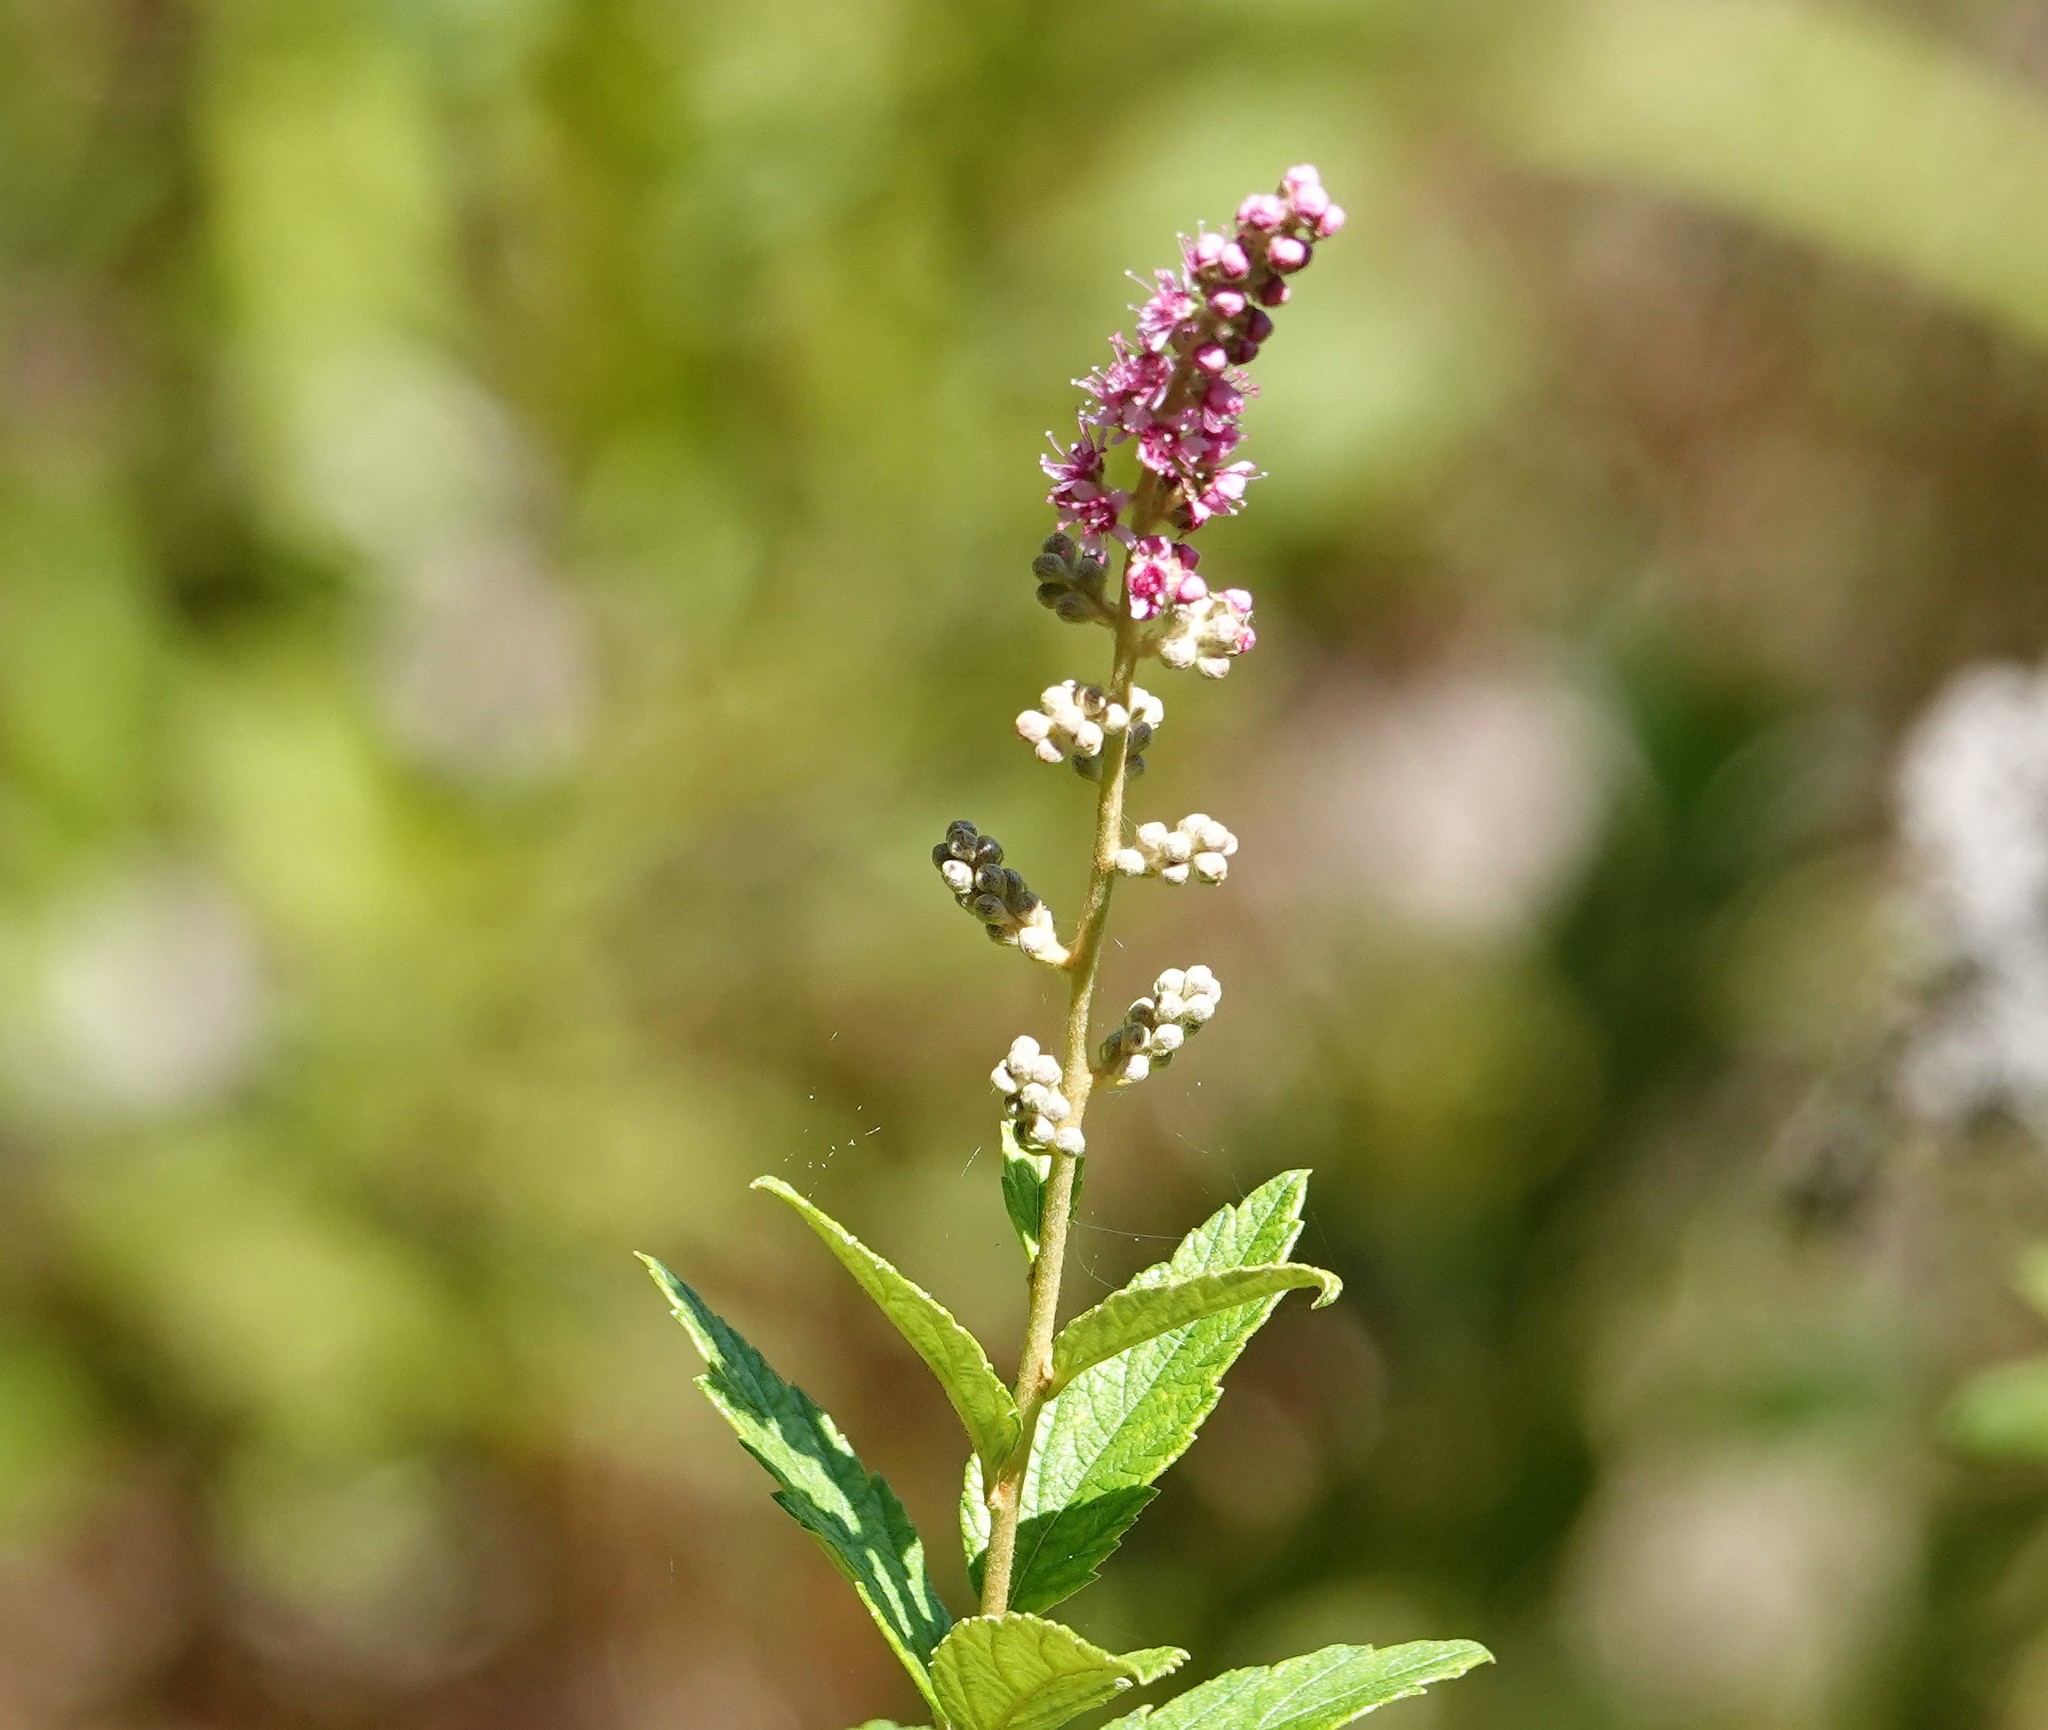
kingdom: Plantae
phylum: Tracheophyta
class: Magnoliopsida
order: Rosales
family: Rosaceae
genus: Spiraea
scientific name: Spiraea tomentosa
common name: Hardhack
